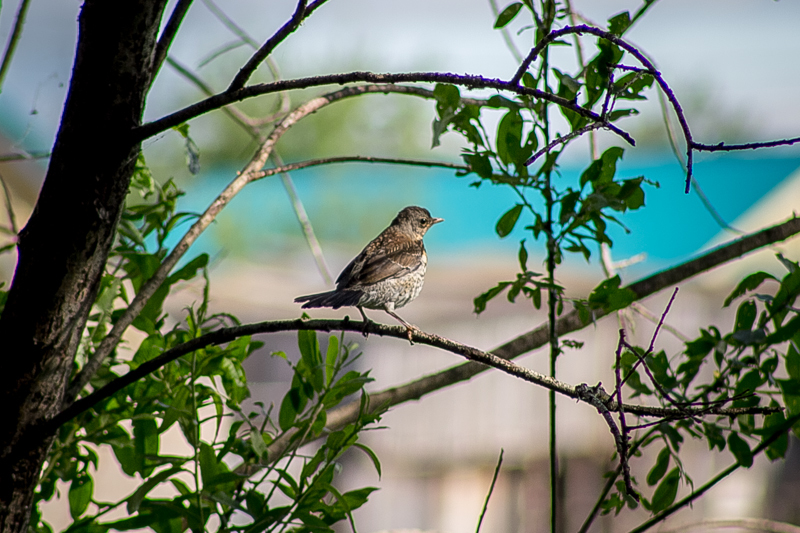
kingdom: Animalia
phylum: Chordata
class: Aves
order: Passeriformes
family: Turdidae
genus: Turdus
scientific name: Turdus pilaris
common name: Fieldfare
